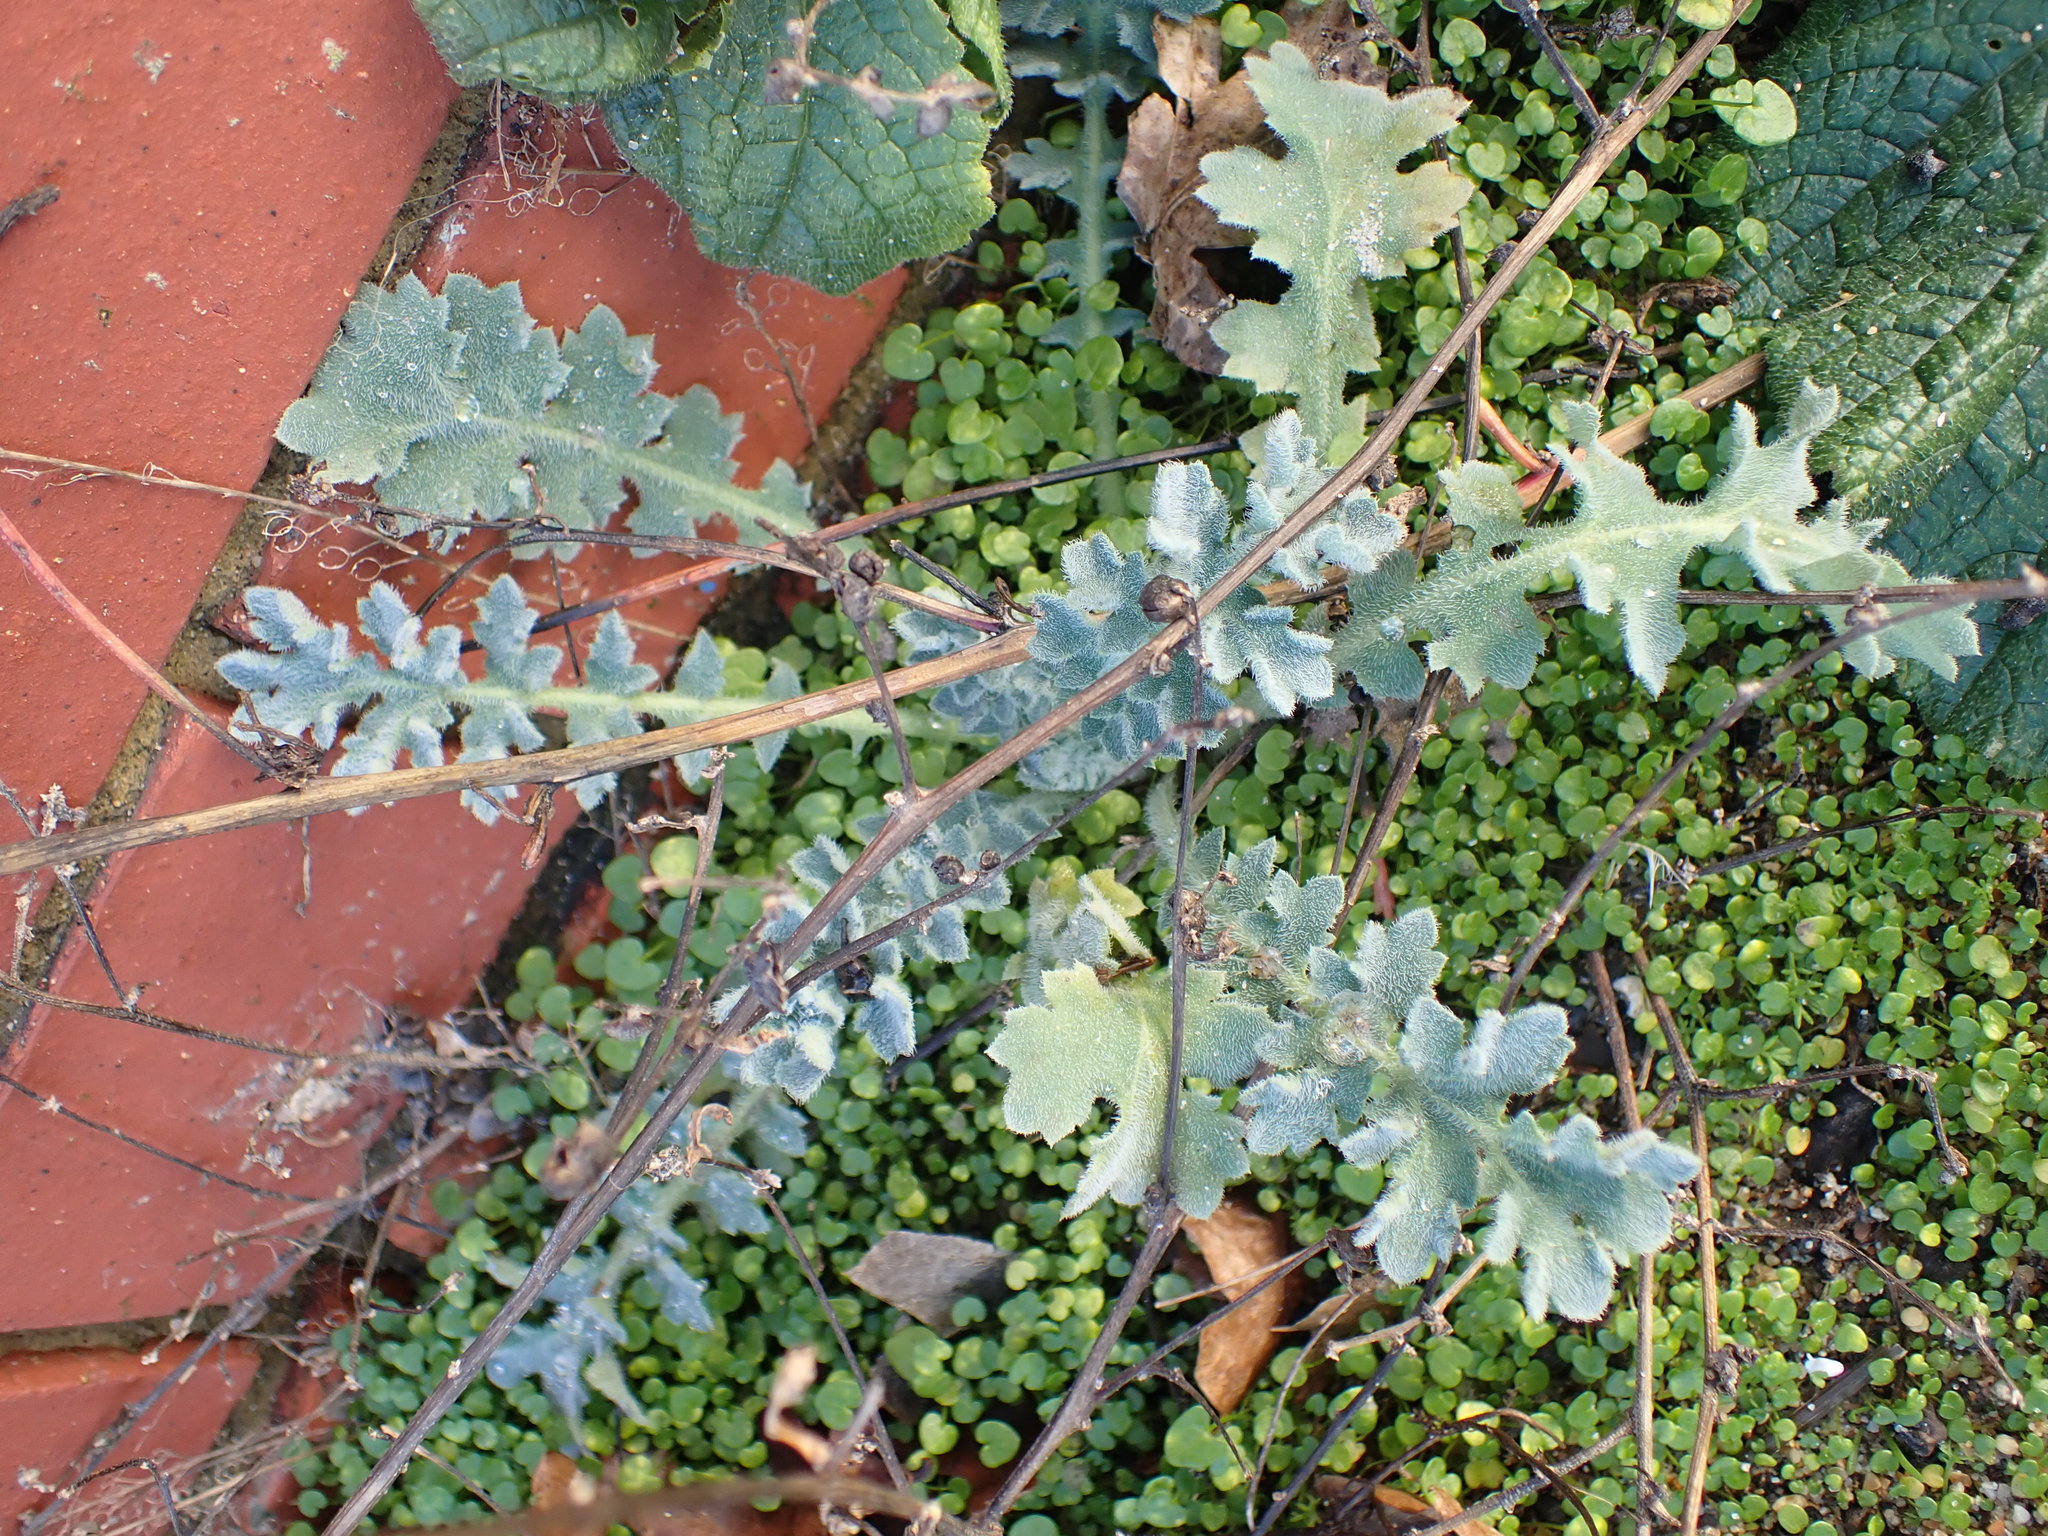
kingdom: Plantae
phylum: Tracheophyta
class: Magnoliopsida
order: Ranunculales
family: Papaveraceae
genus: Glaucium
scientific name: Glaucium flavum
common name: Yellow horned-poppy
